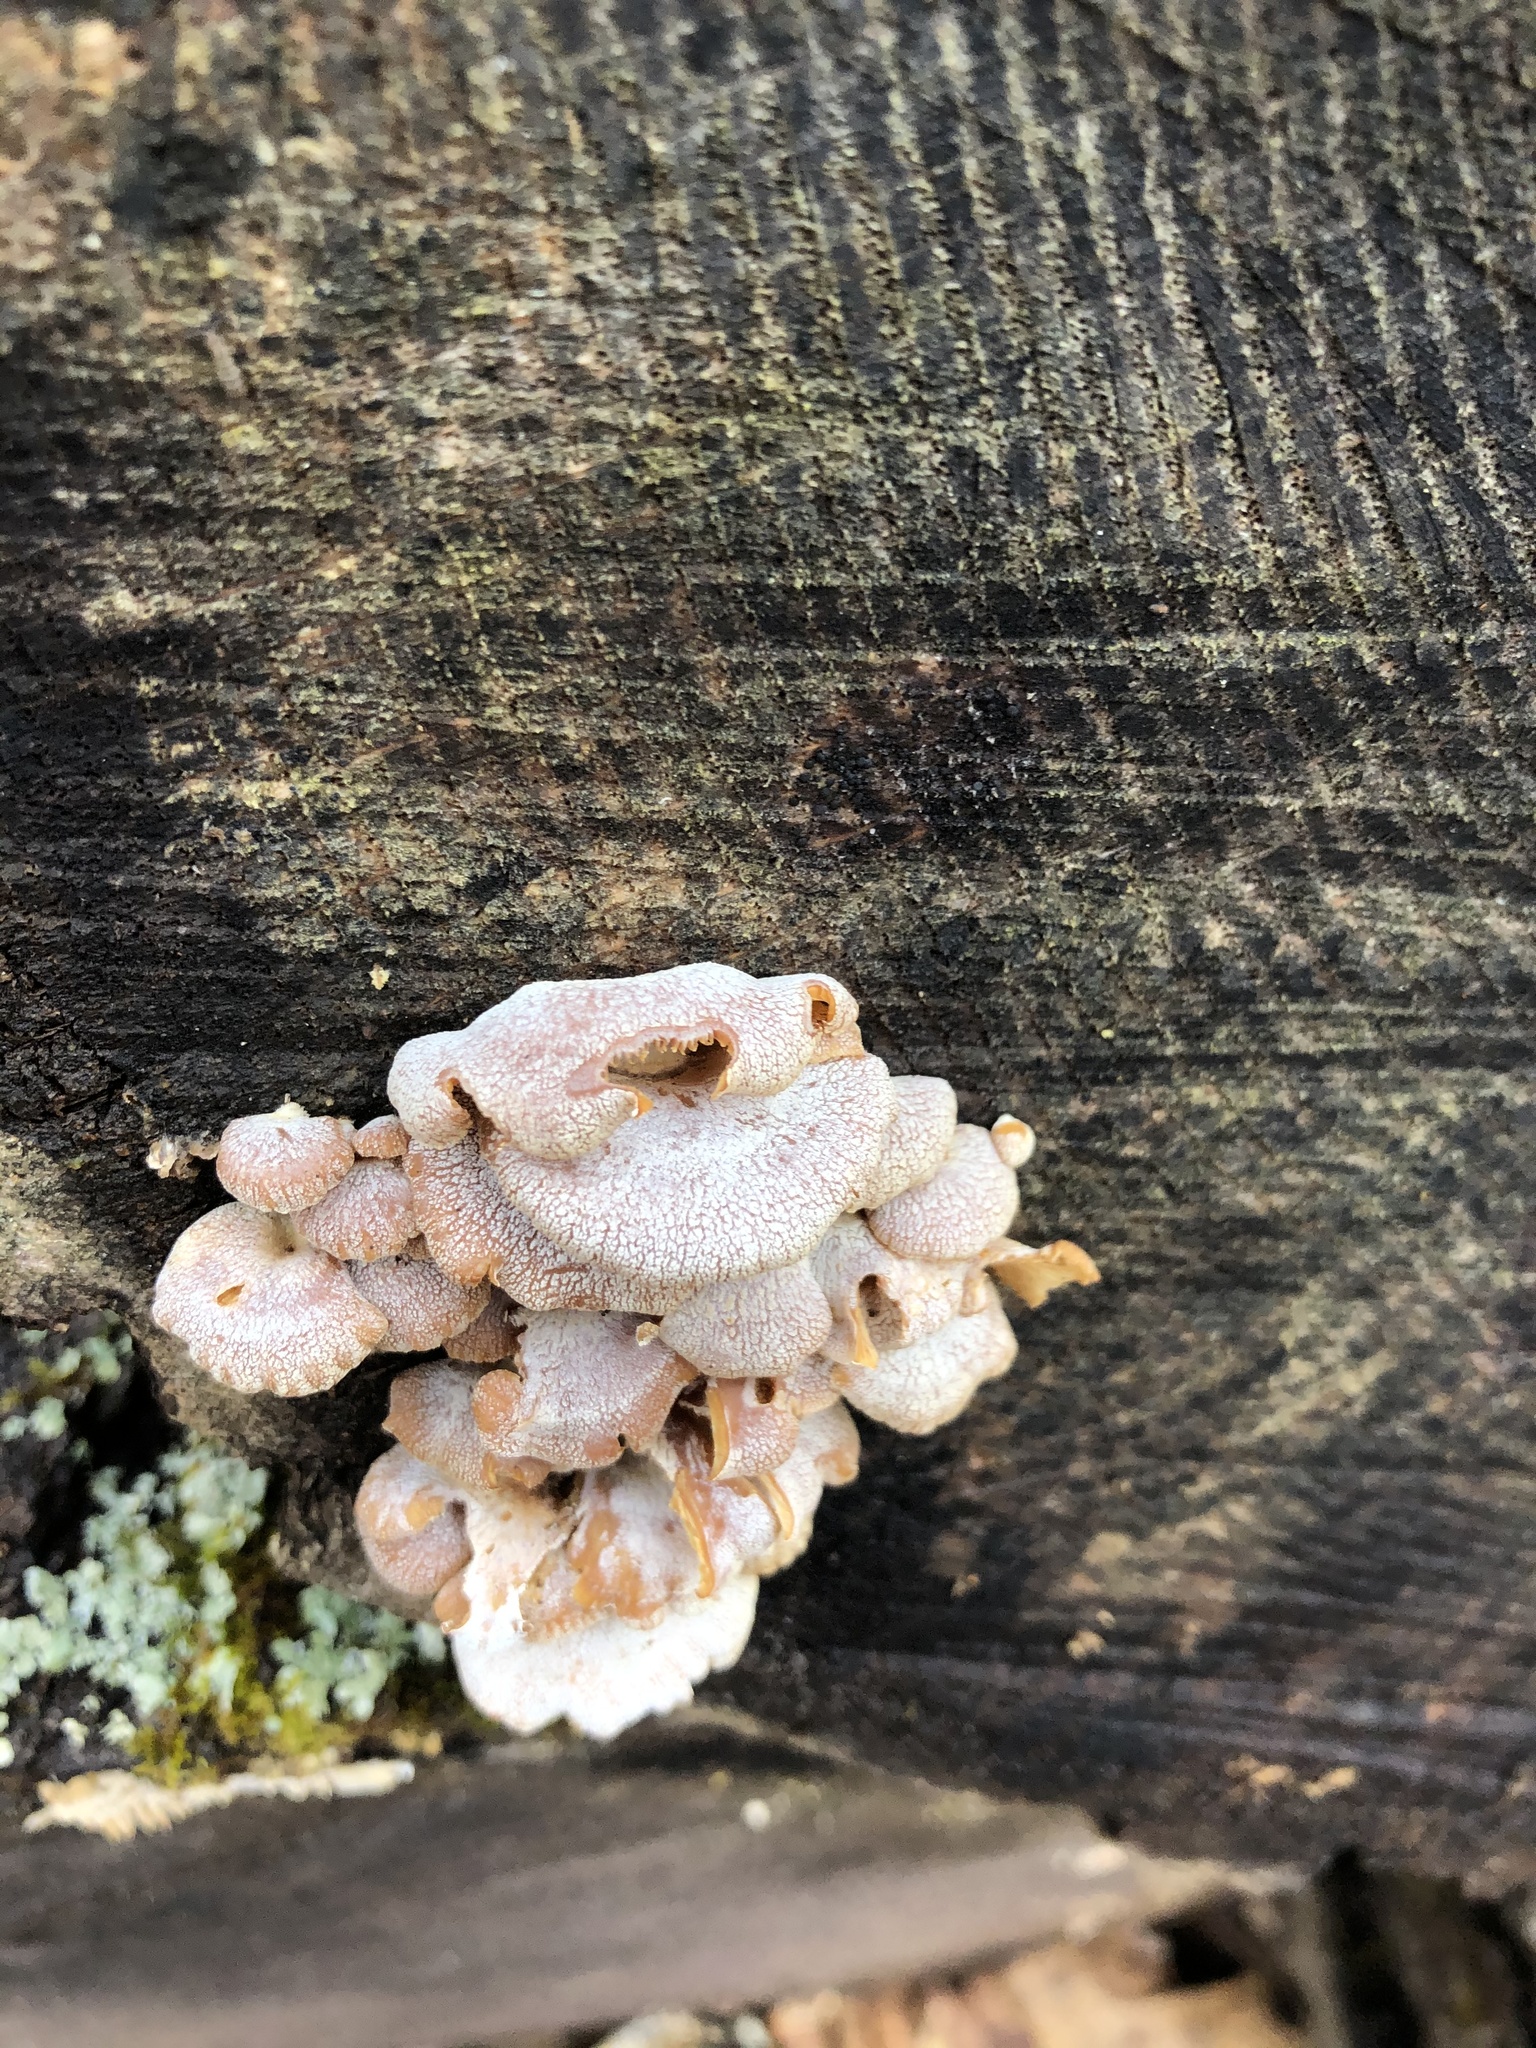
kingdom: Fungi
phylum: Basidiomycota
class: Agaricomycetes
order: Agaricales
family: Mycenaceae
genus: Panellus
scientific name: Panellus stipticus
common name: Bitter oysterling
